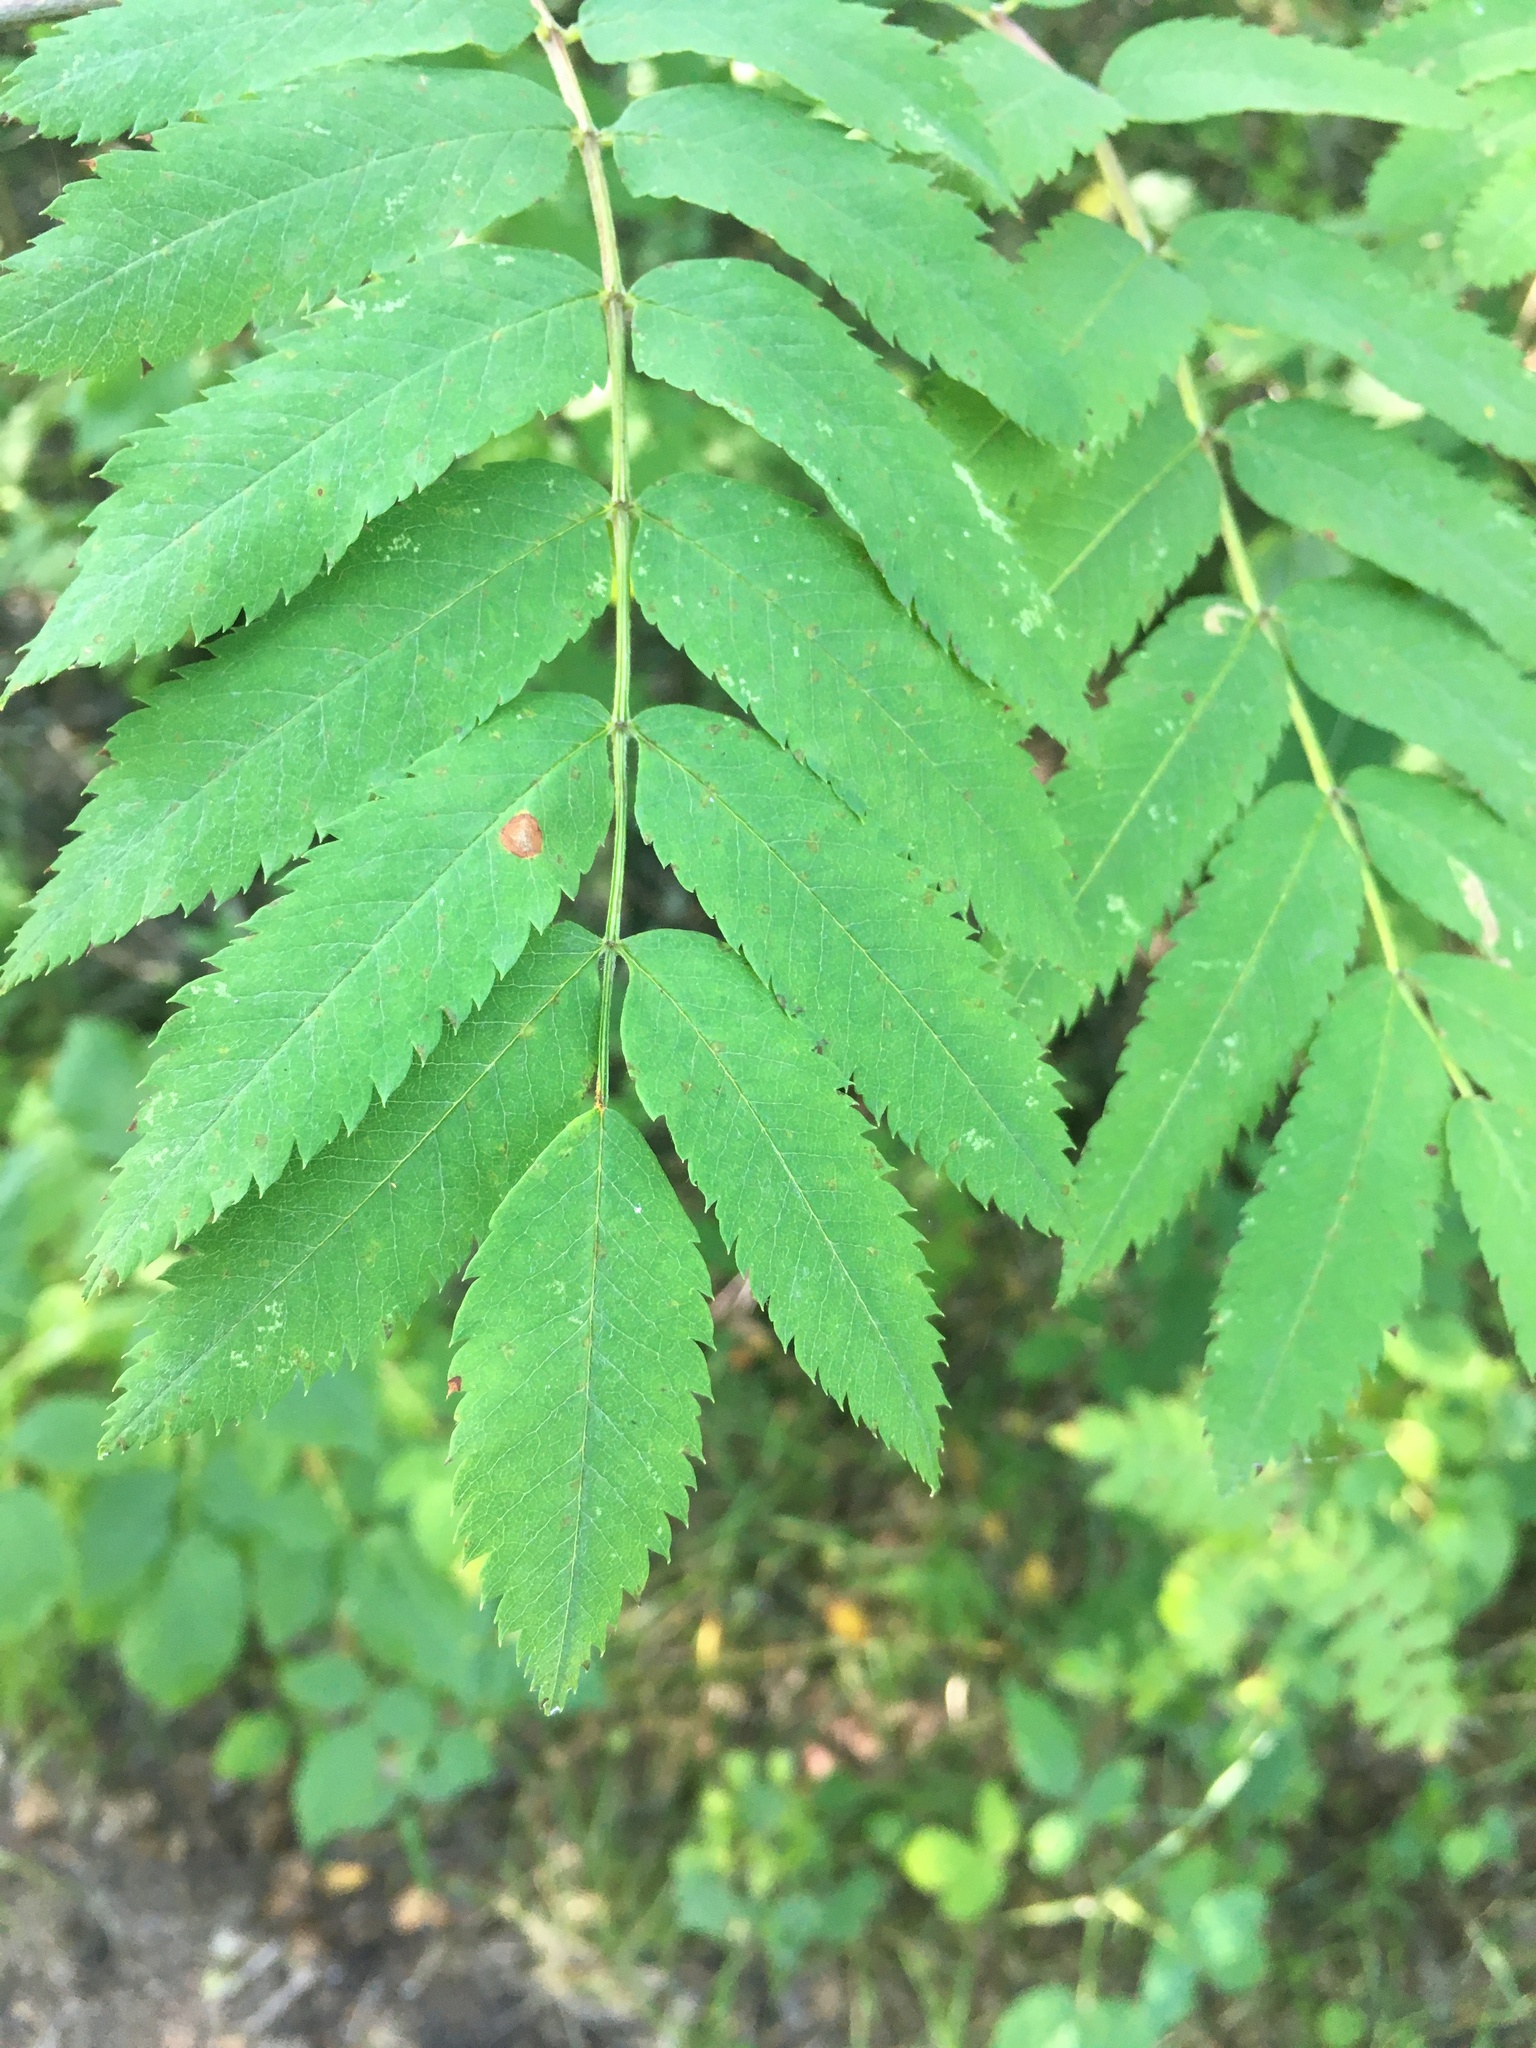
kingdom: Plantae
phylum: Tracheophyta
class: Magnoliopsida
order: Rosales
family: Rosaceae
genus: Sorbus
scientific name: Sorbus aucuparia
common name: Rowan
